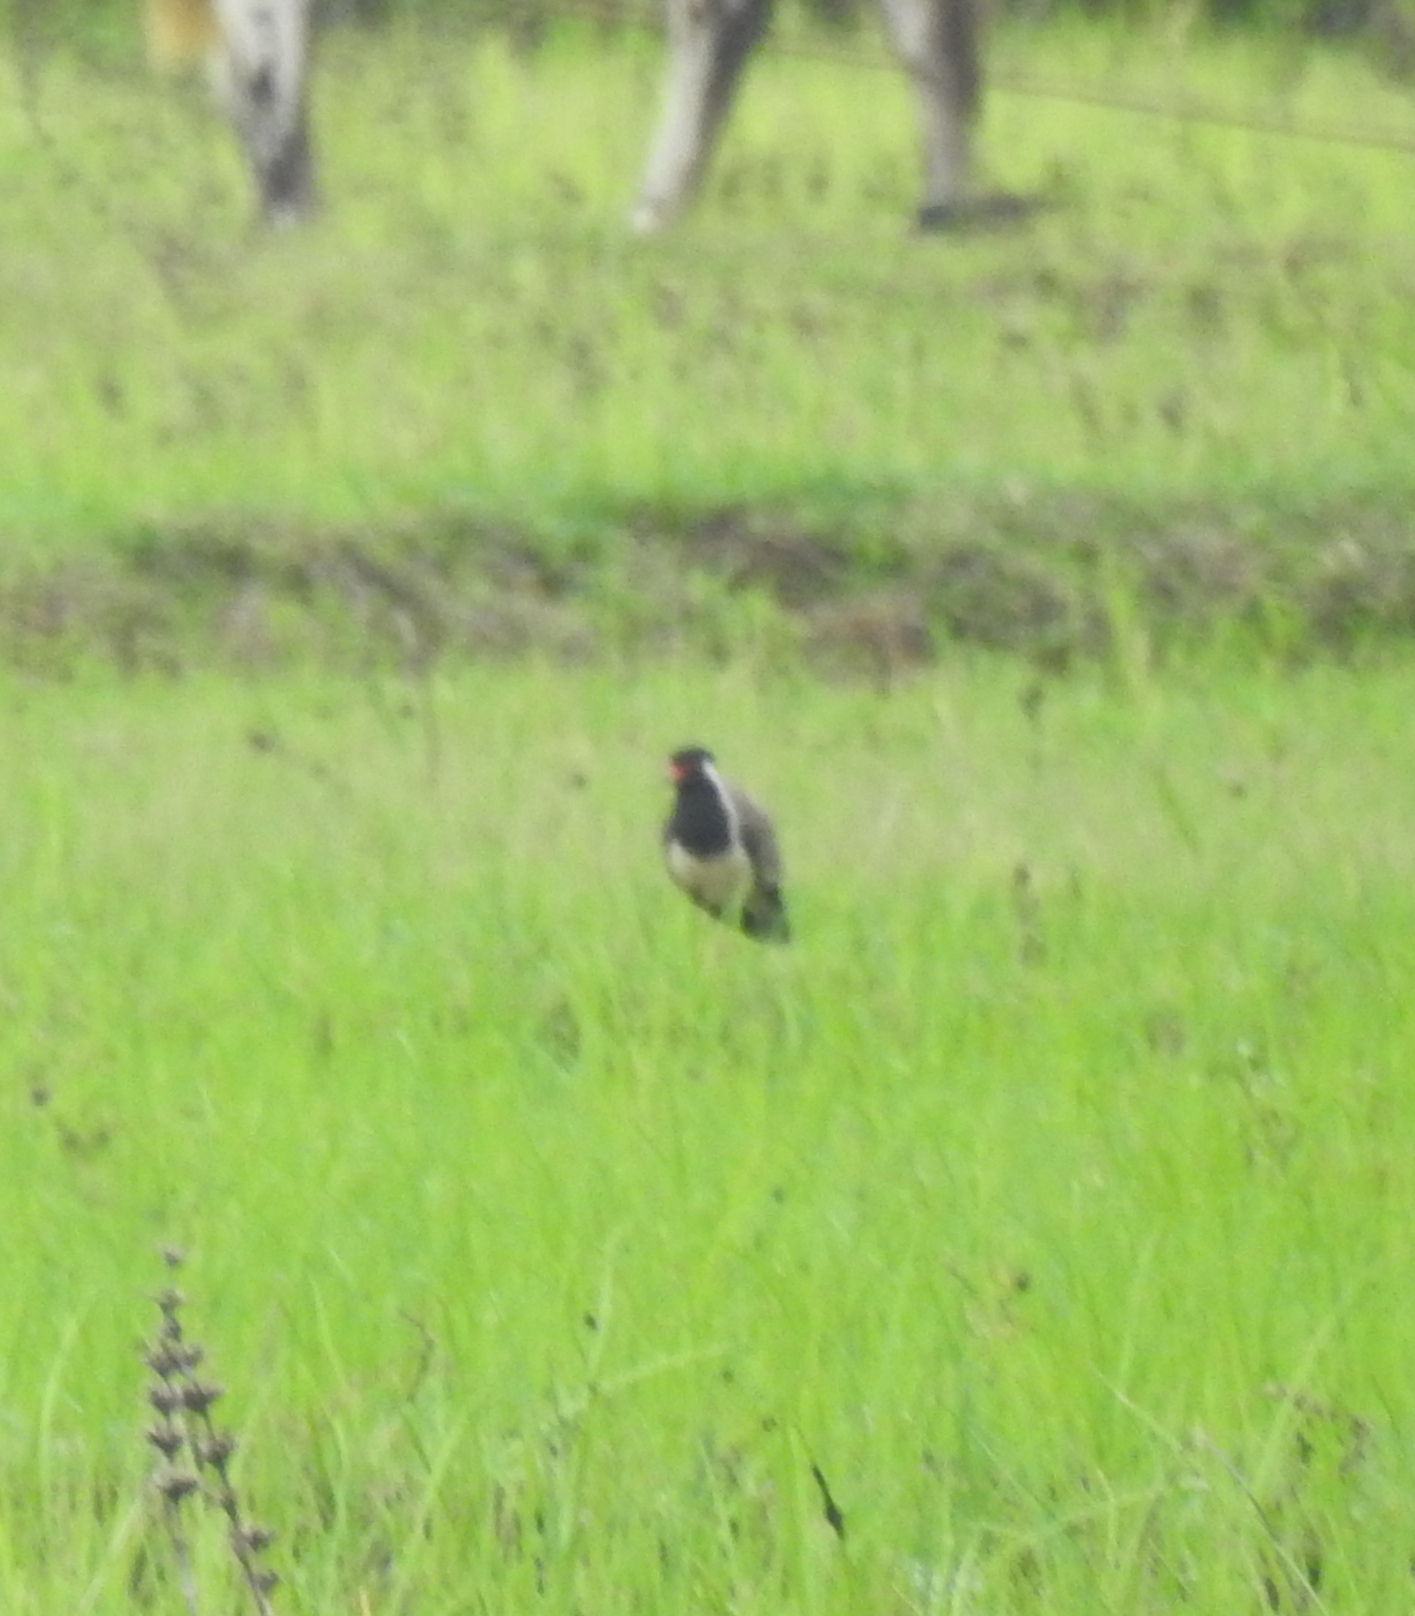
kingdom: Animalia
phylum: Chordata
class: Aves
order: Charadriiformes
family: Charadriidae
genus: Vanellus
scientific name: Vanellus indicus
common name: Red-wattled lapwing
